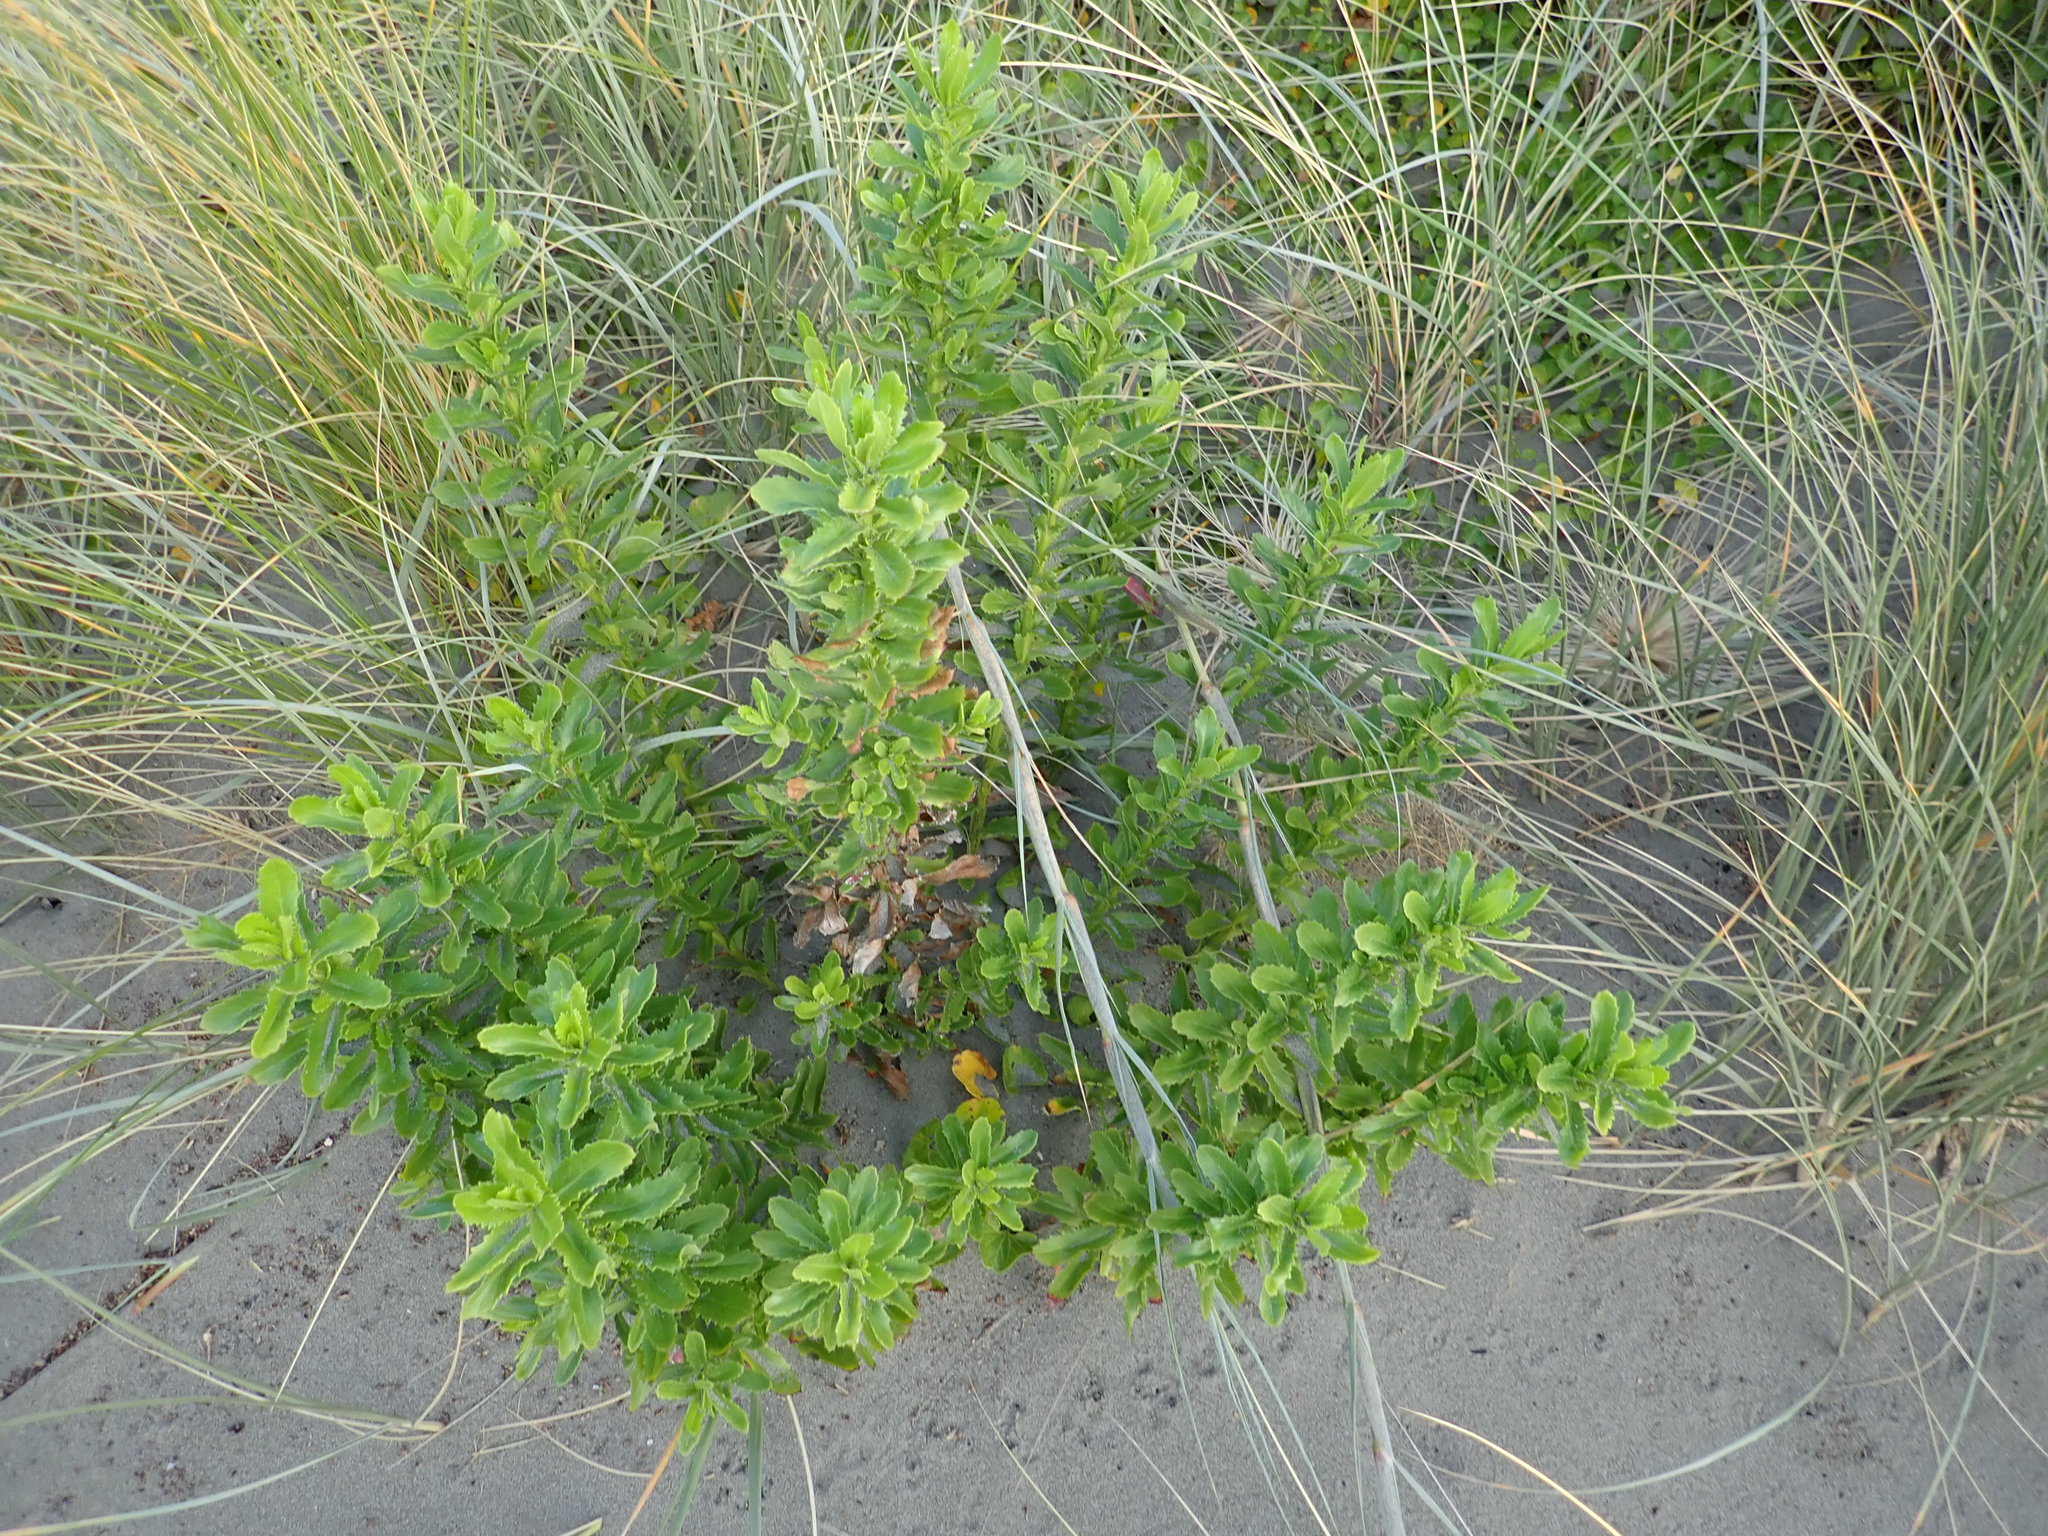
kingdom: Plantae
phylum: Tracheophyta
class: Magnoliopsida
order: Asterales
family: Asteraceae
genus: Senecio
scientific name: Senecio glastifolius
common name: Woad-leaved ragwort
